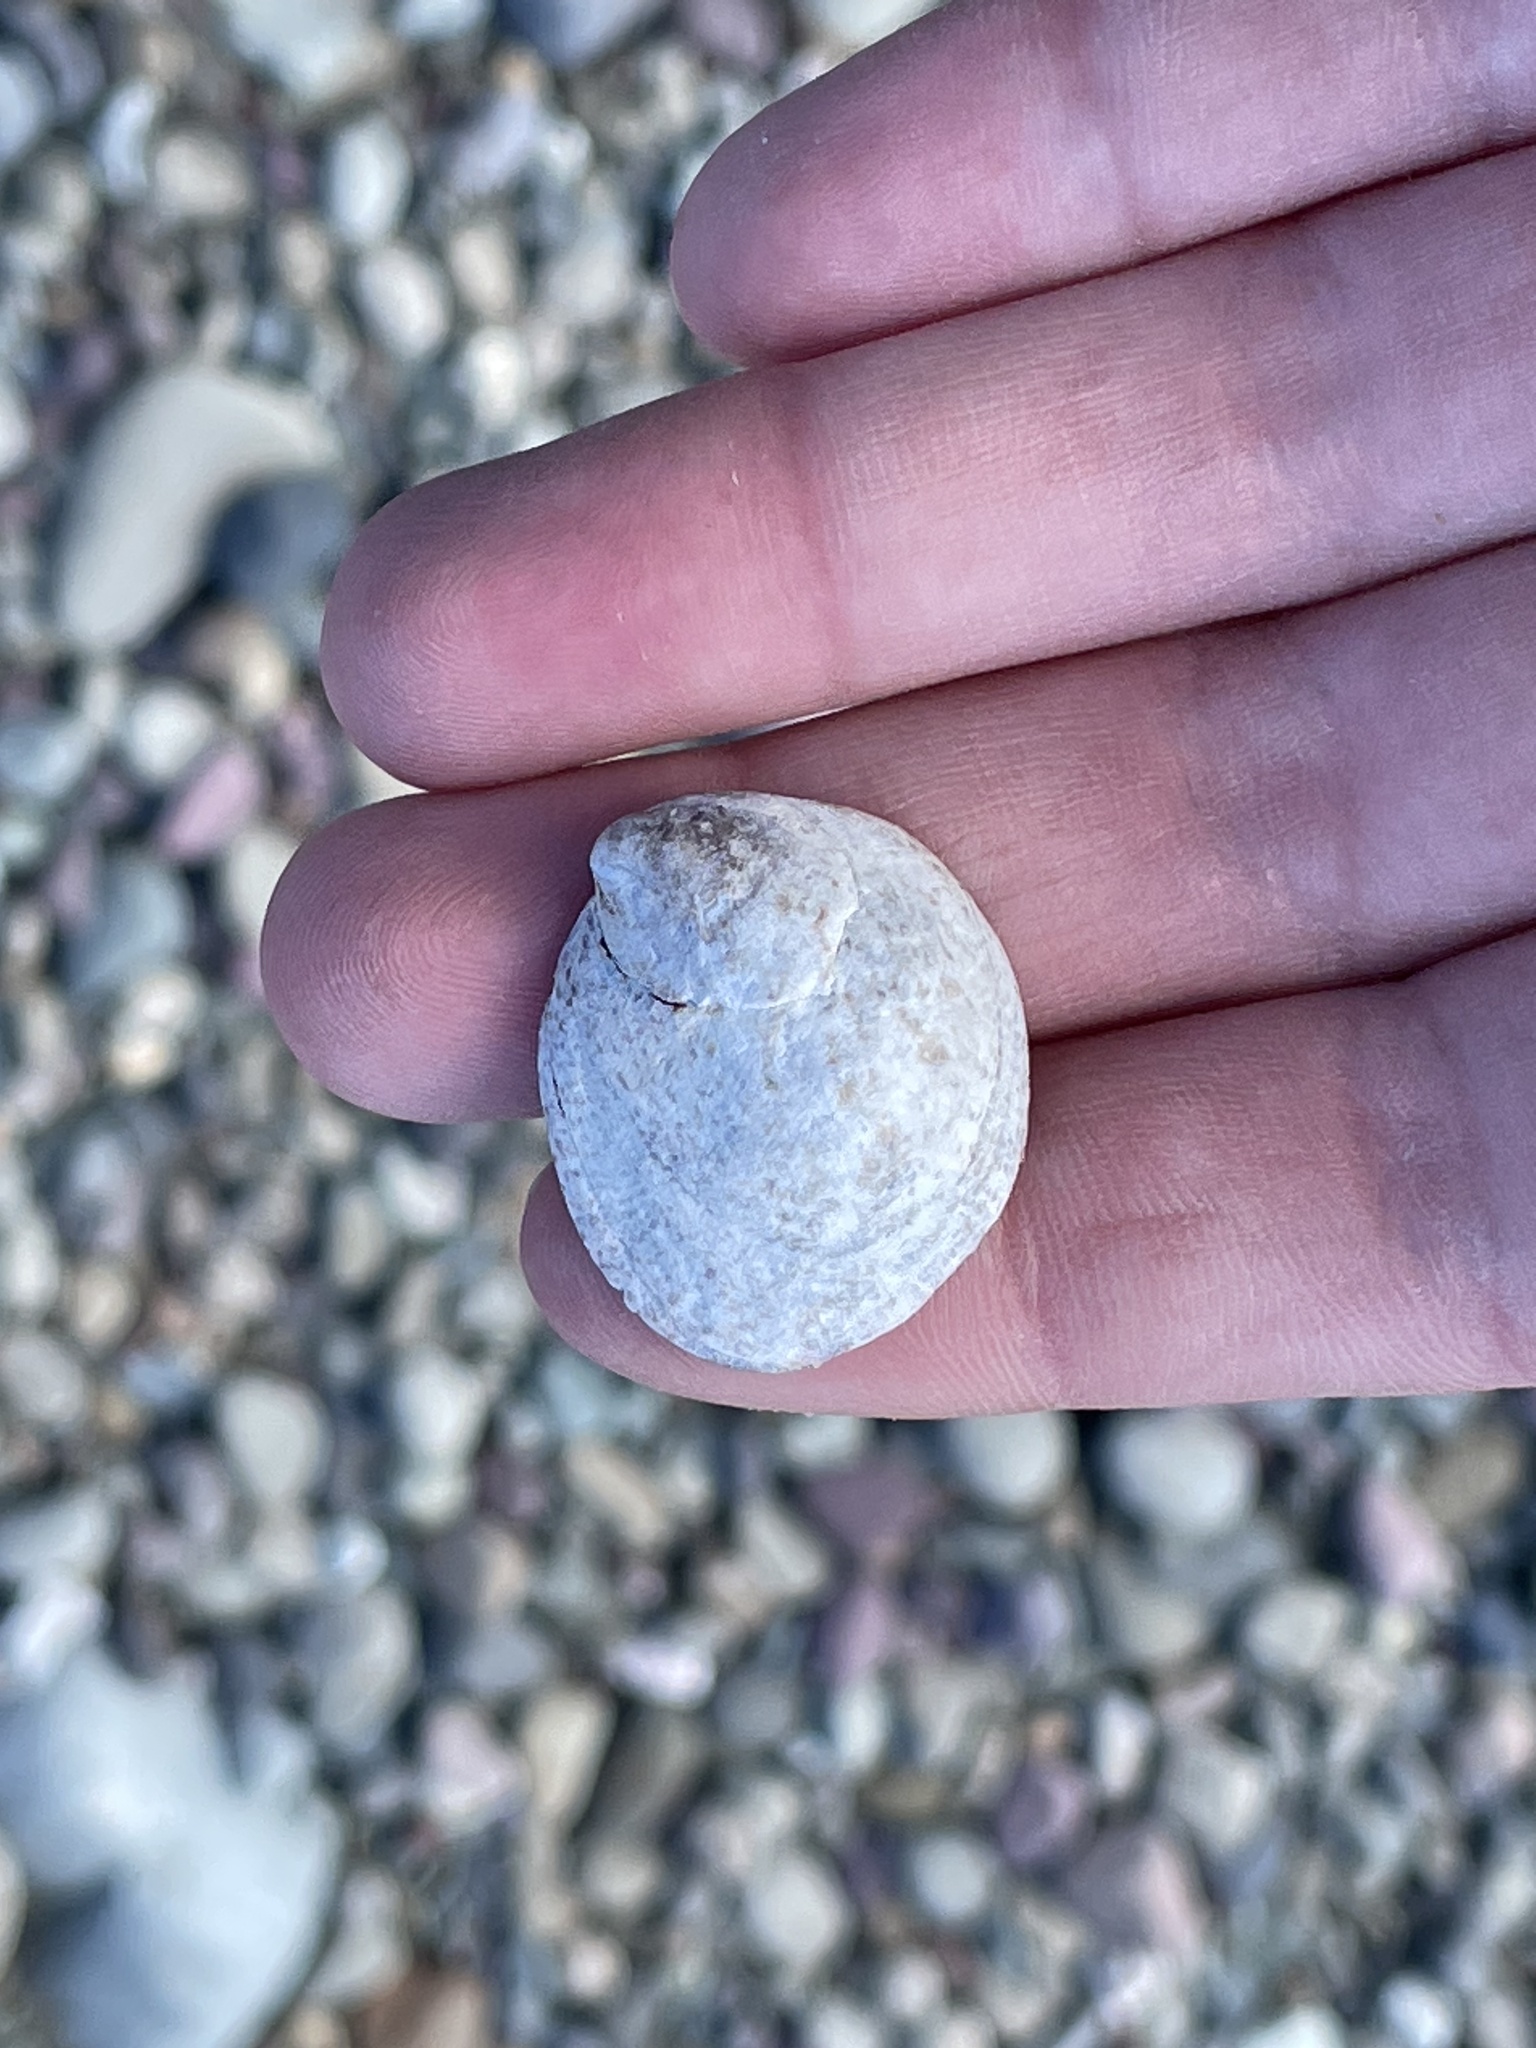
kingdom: Animalia
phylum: Mollusca
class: Gastropoda
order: Littorinimorpha
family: Calyptraeidae
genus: Crepidula
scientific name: Crepidula fornicata
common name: Slipper limpet
